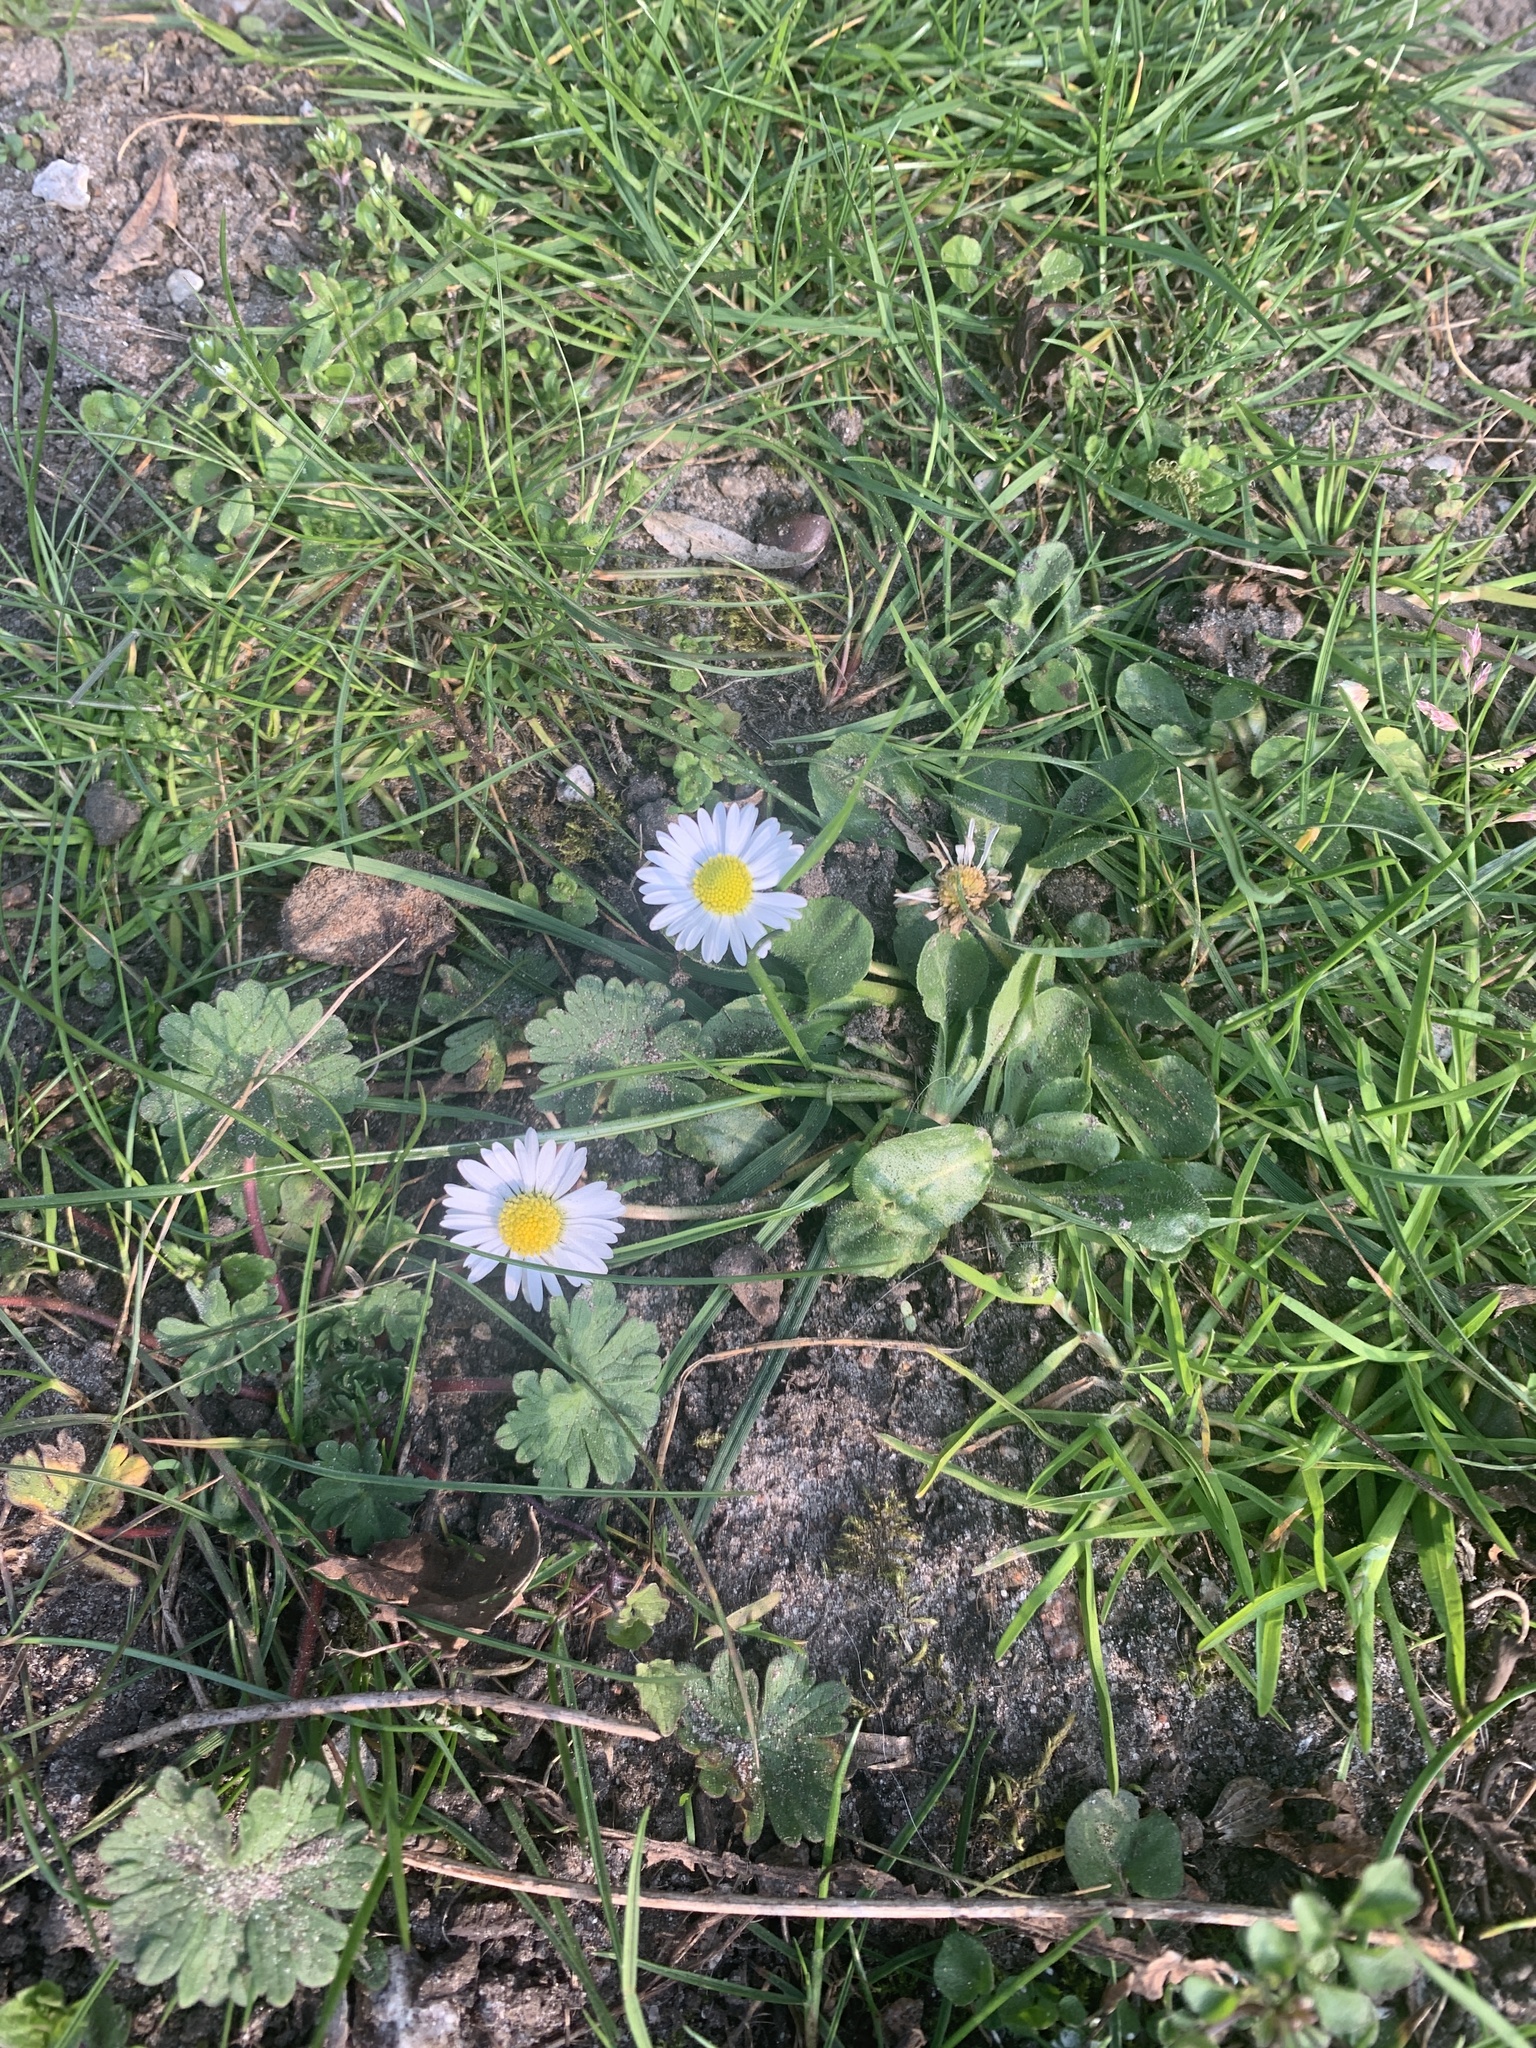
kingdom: Plantae
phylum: Tracheophyta
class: Magnoliopsida
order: Asterales
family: Asteraceae
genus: Bellis
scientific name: Bellis perennis
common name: Lawndaisy
